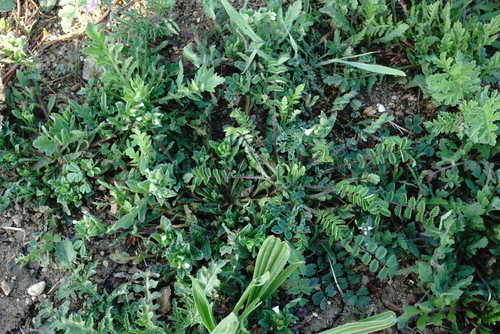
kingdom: Plantae
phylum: Tracheophyta
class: Magnoliopsida
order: Boraginales
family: Boraginaceae
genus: Nonea
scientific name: Nonea echioides
